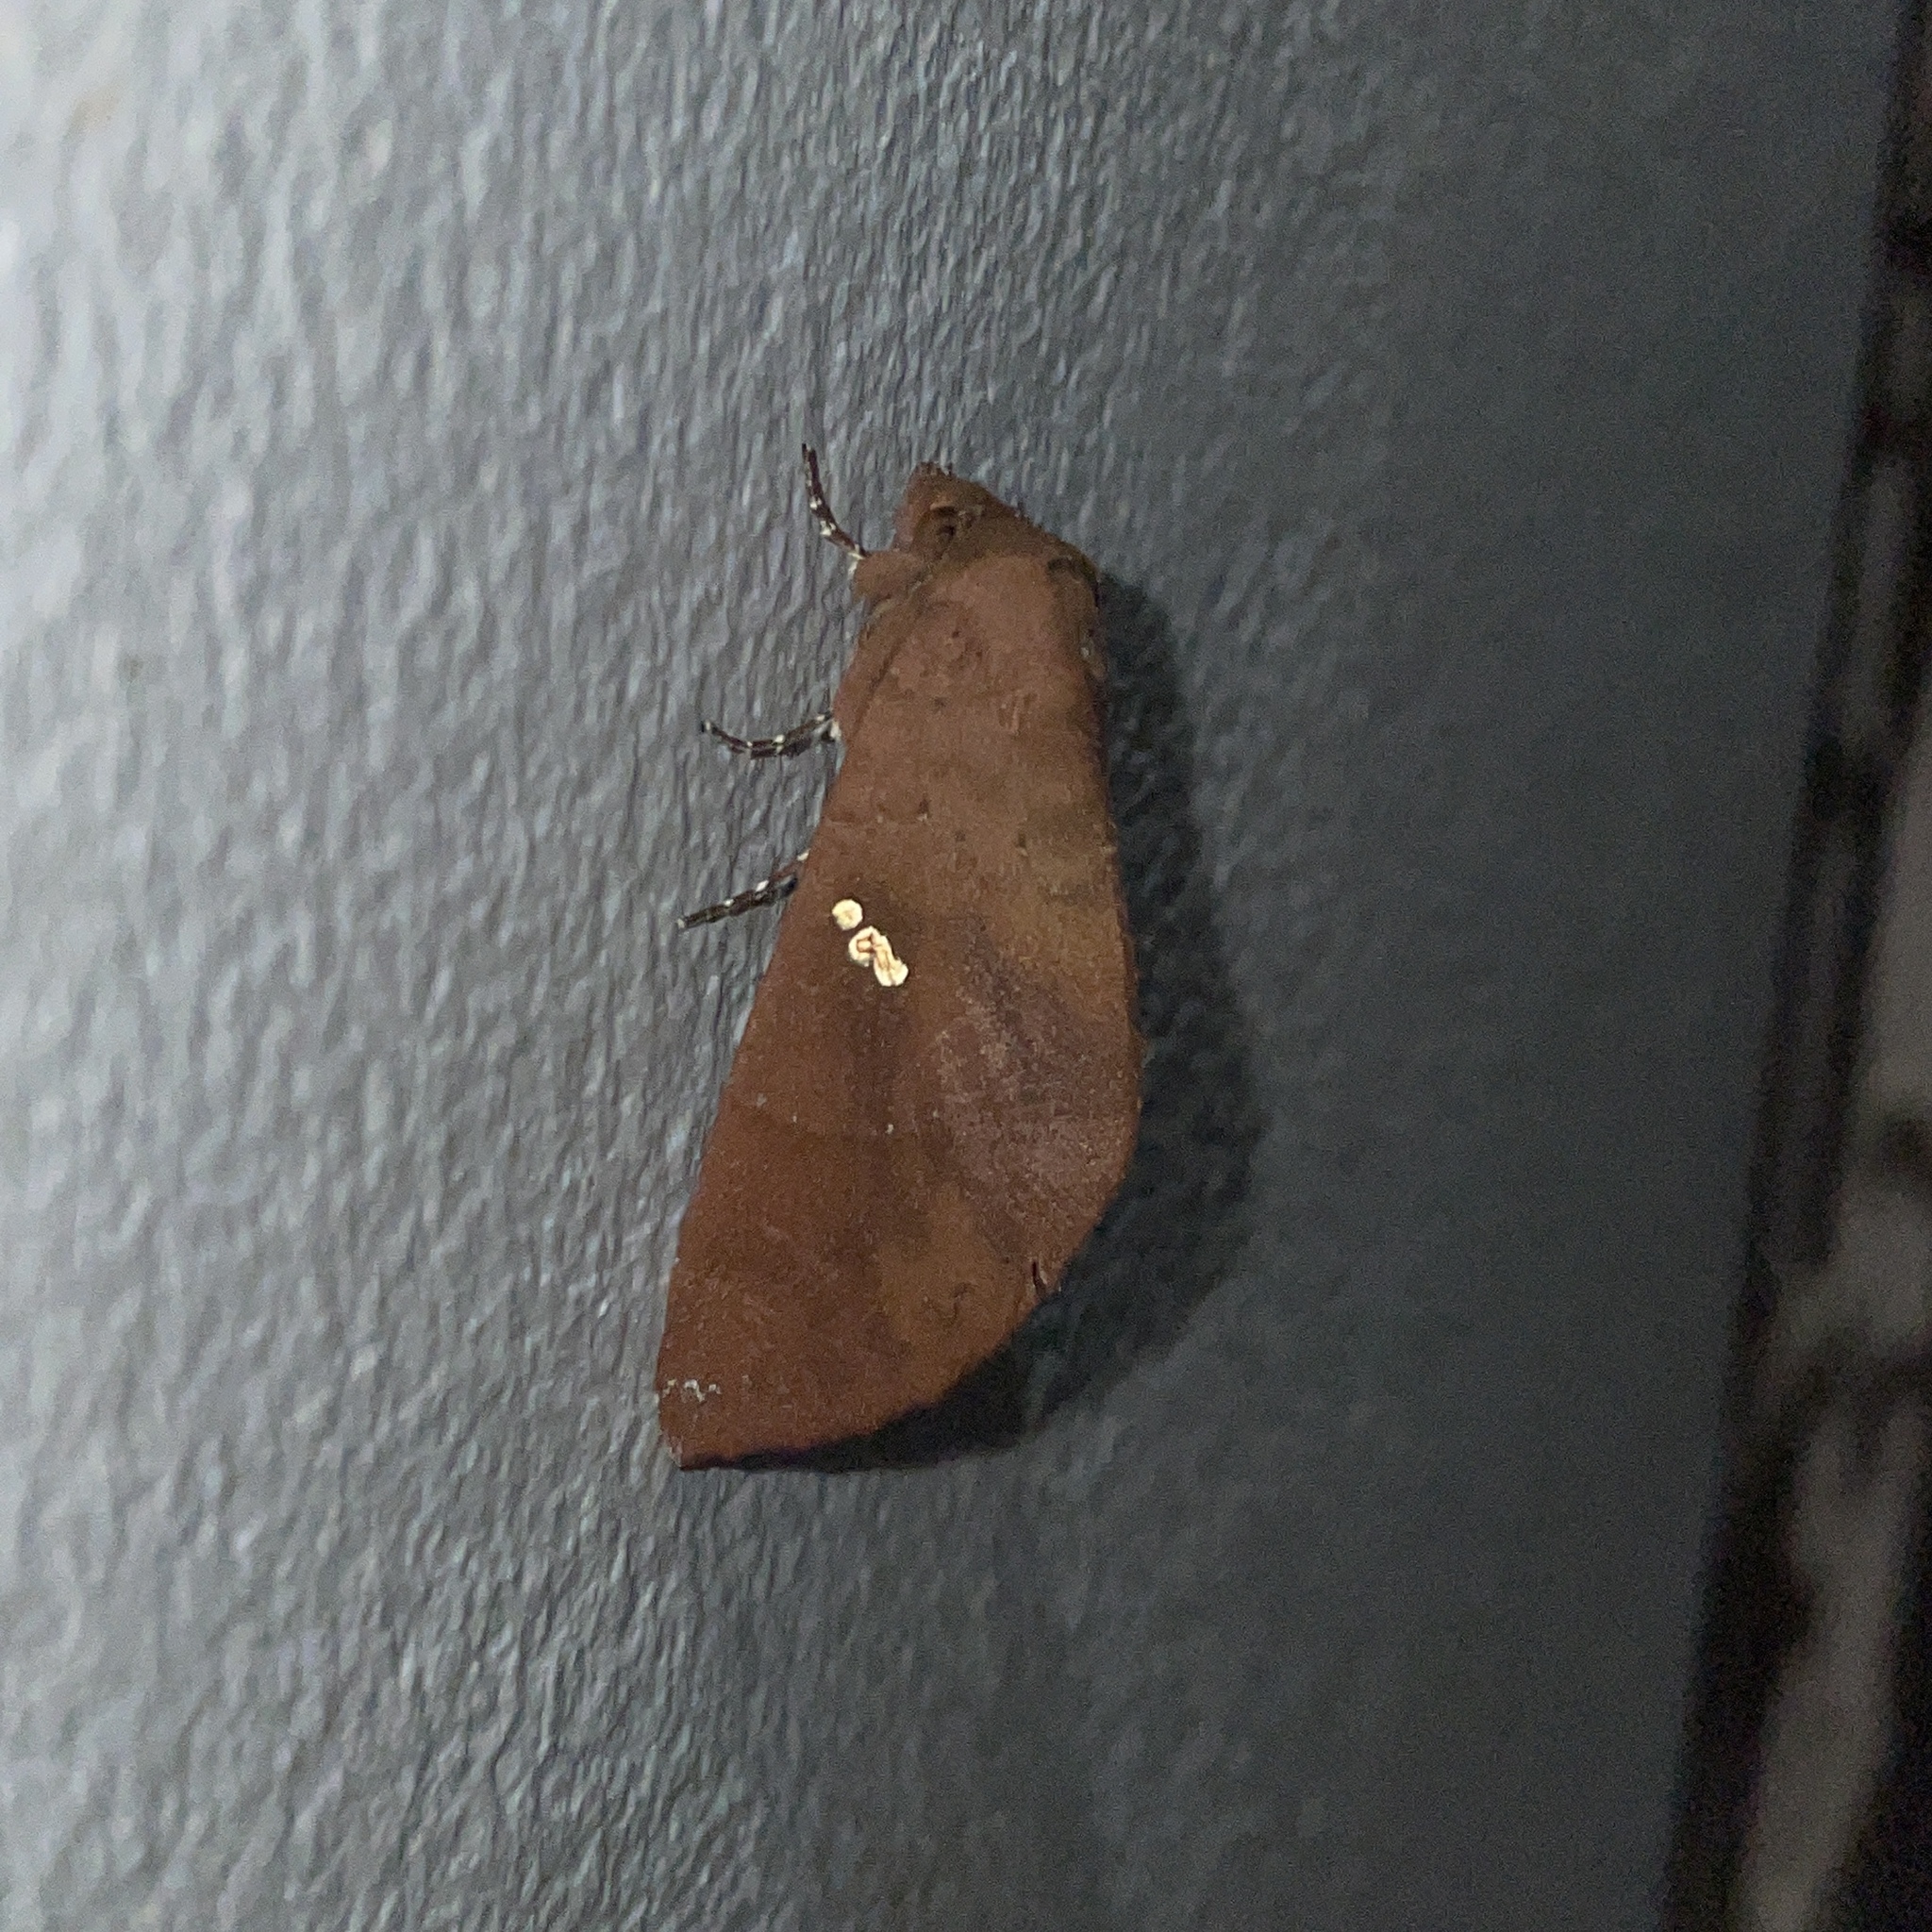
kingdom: Animalia
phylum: Arthropoda
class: Insecta
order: Lepidoptera
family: Notodontidae
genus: Hapigia
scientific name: Hapigia raatzi
